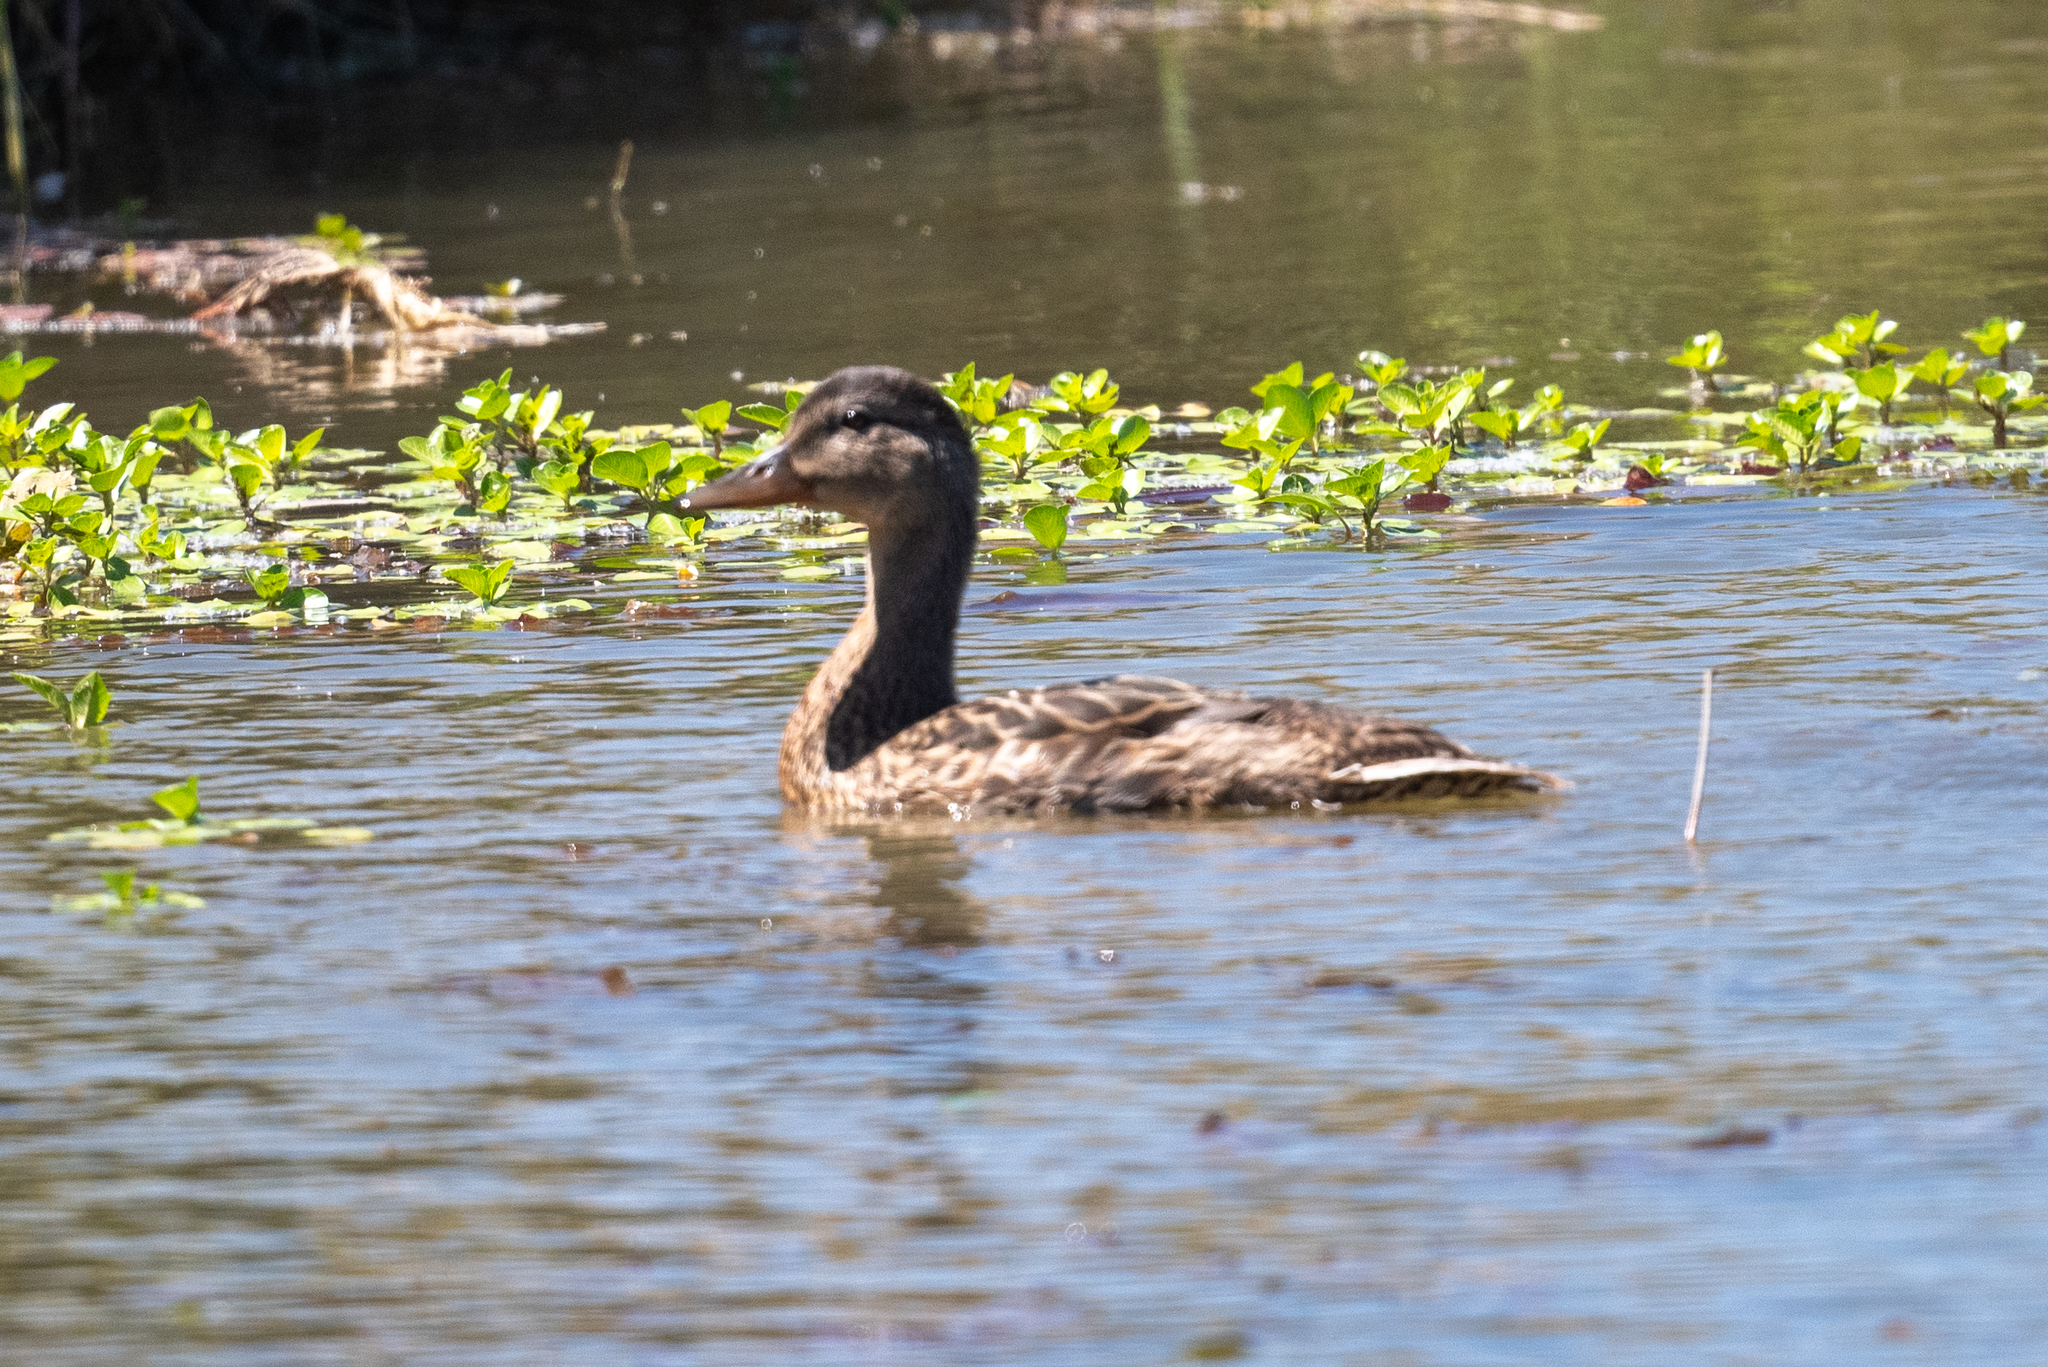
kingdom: Animalia
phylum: Chordata
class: Aves
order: Anseriformes
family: Anatidae
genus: Anas
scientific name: Anas platyrhynchos
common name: Mallard
